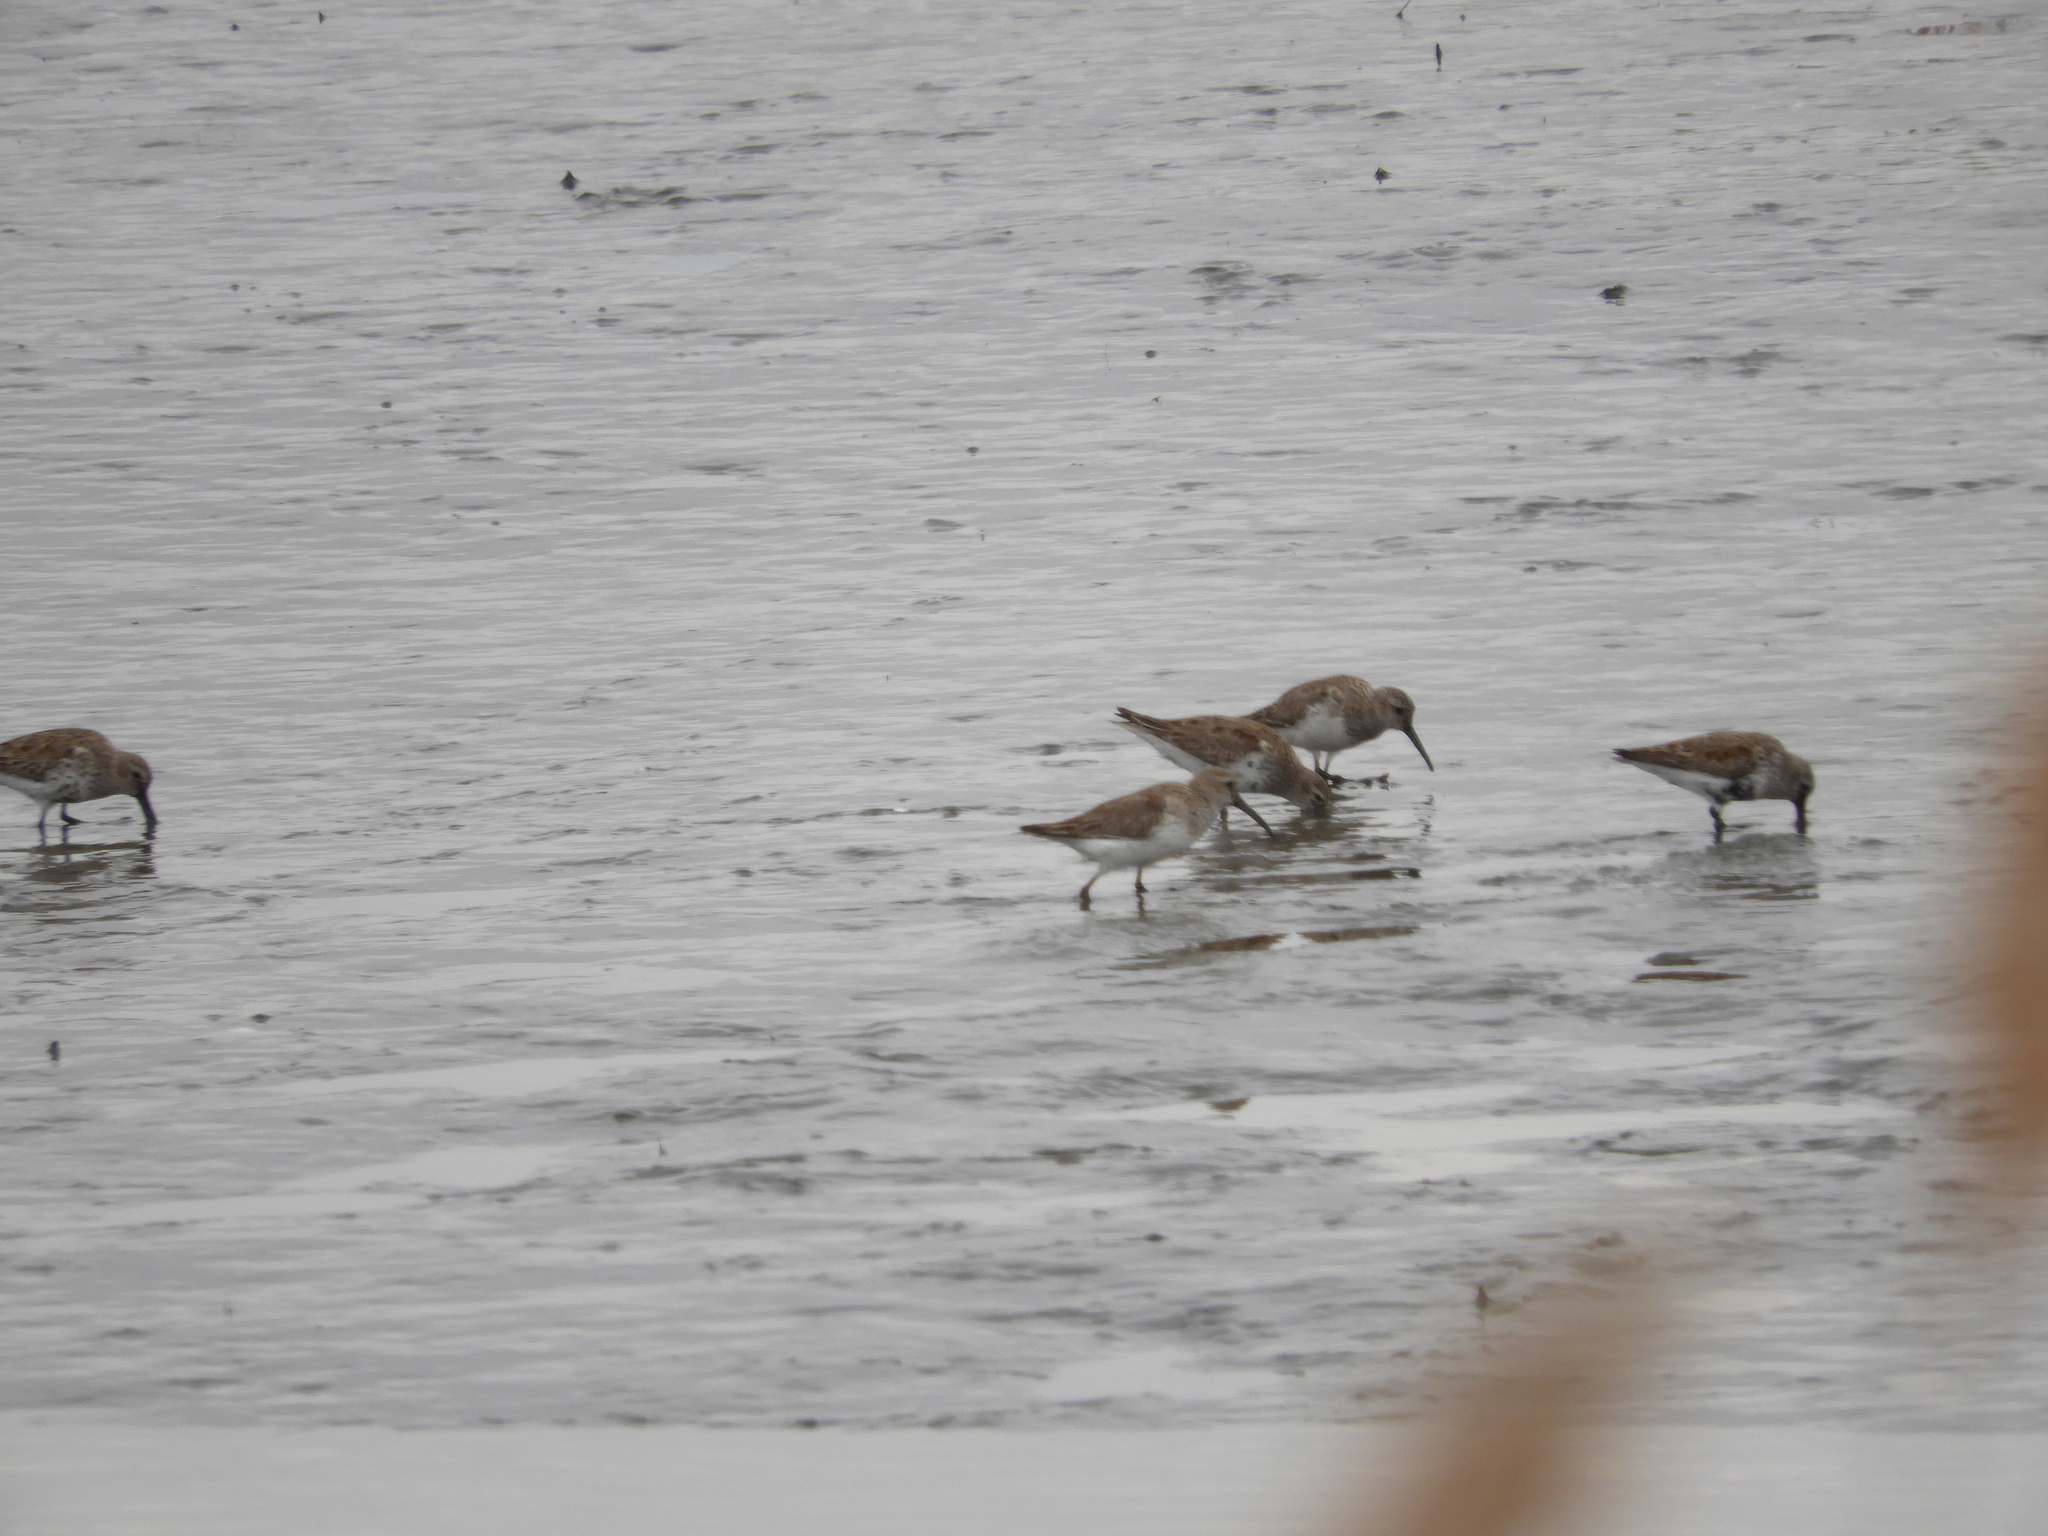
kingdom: Animalia
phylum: Chordata
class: Aves
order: Charadriiformes
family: Scolopacidae
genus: Calidris
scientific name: Calidris alpina
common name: Dunlin
